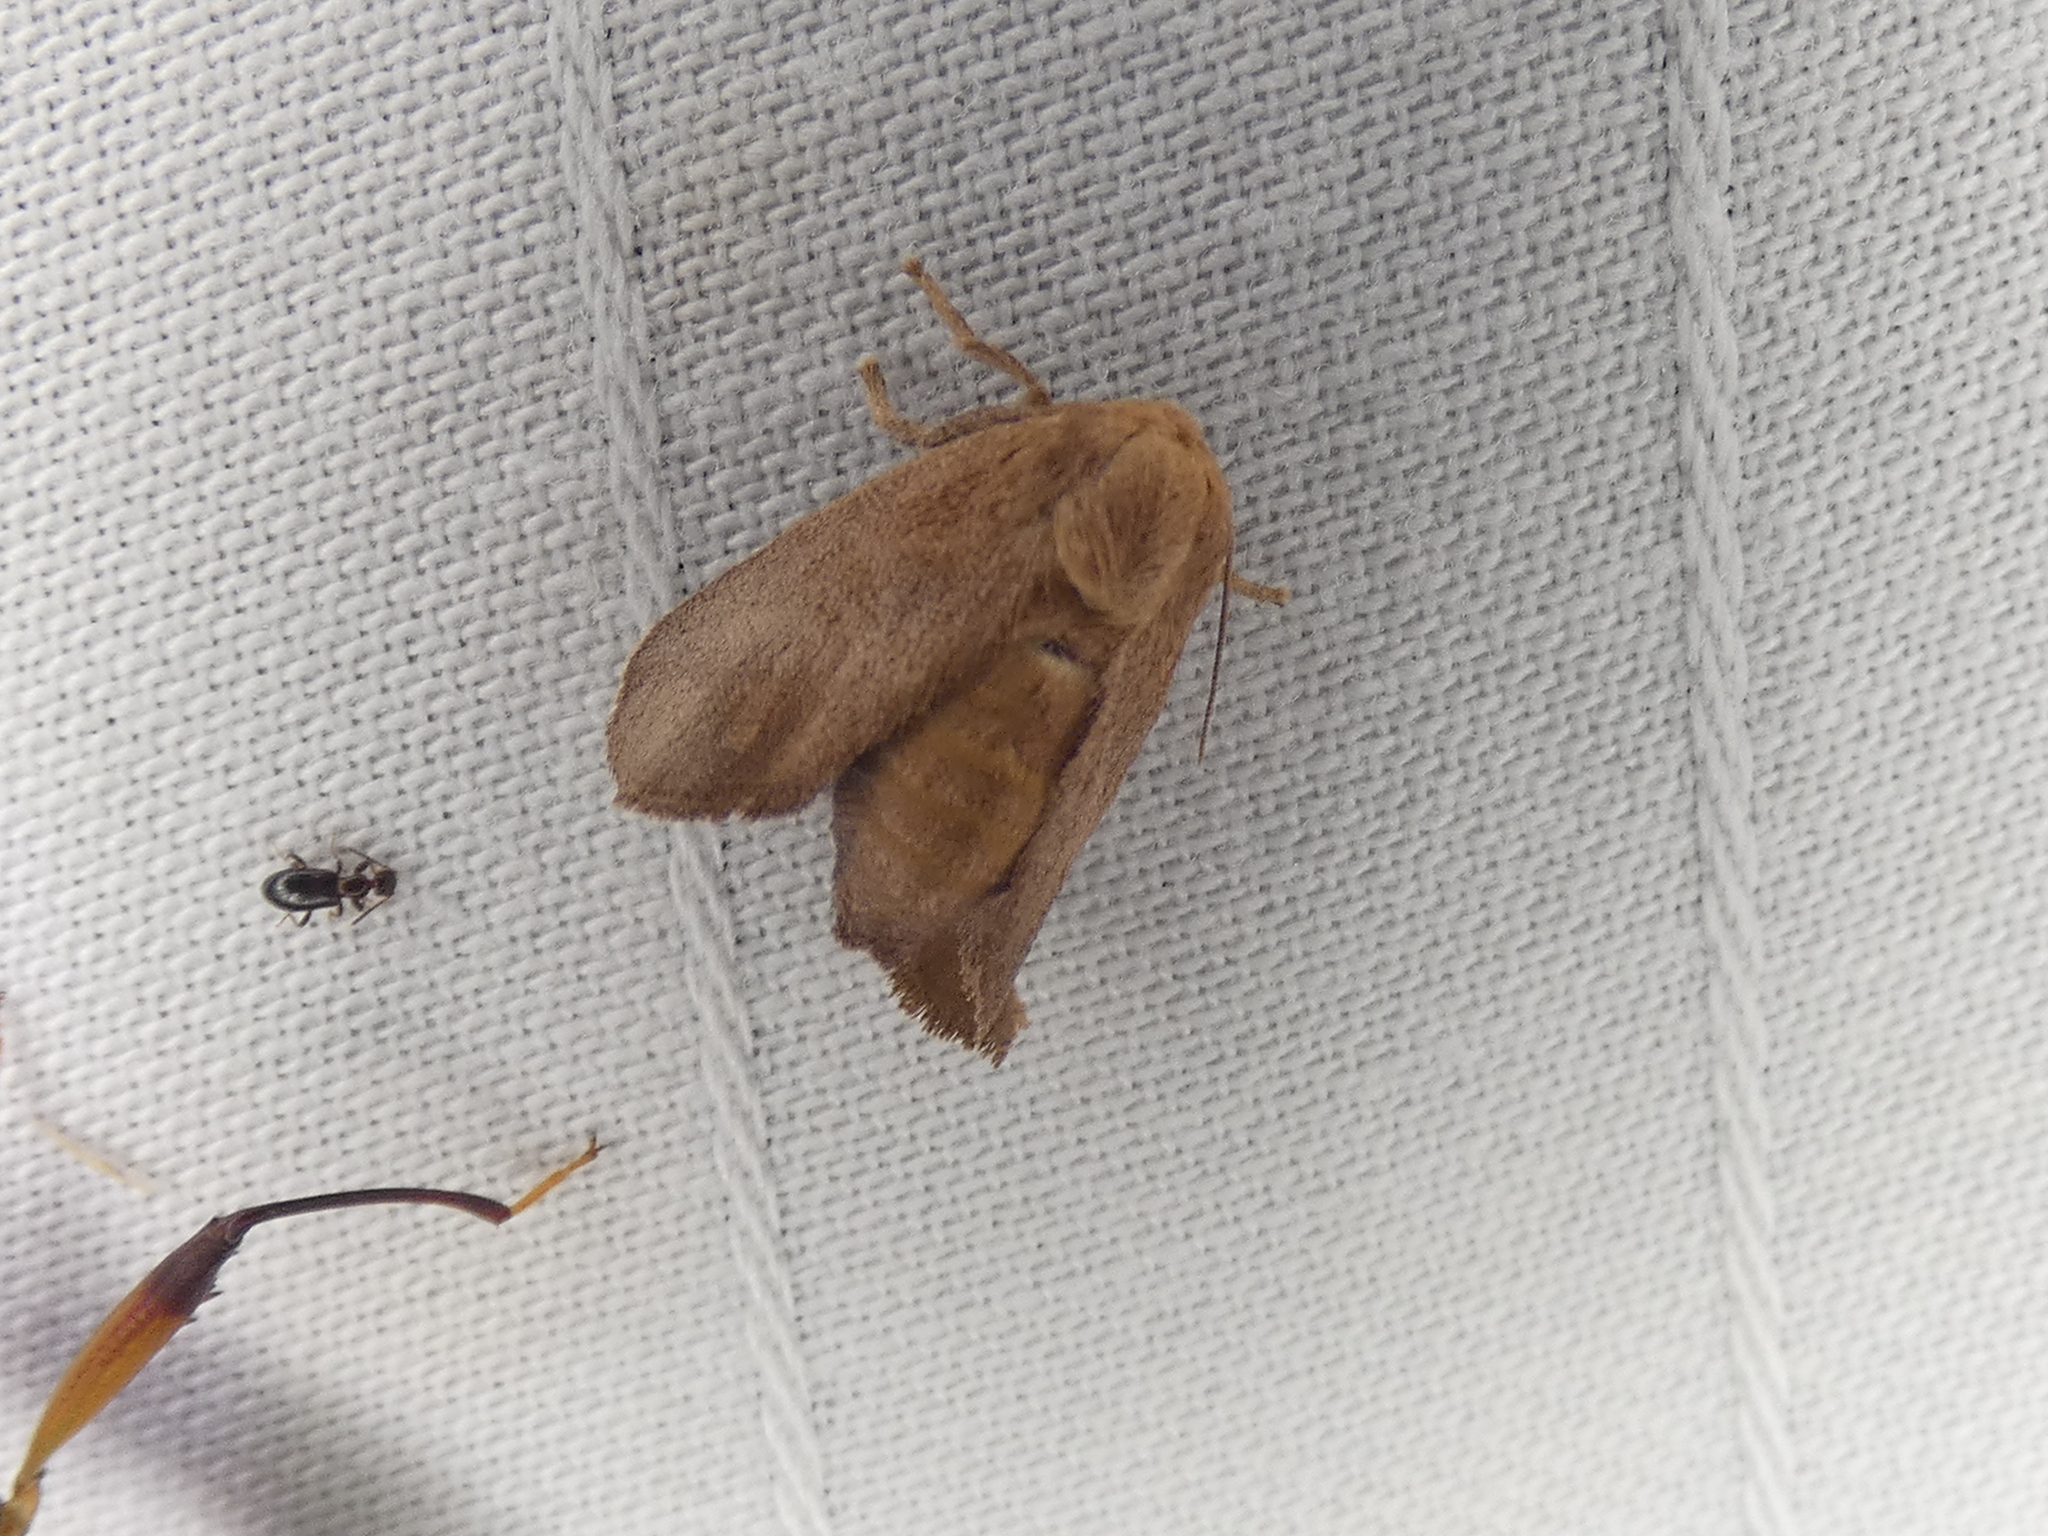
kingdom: Animalia
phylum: Arthropoda
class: Insecta
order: Lepidoptera
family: Limacodidae
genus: Isa
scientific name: Isa textula
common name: Crowned slug moth
